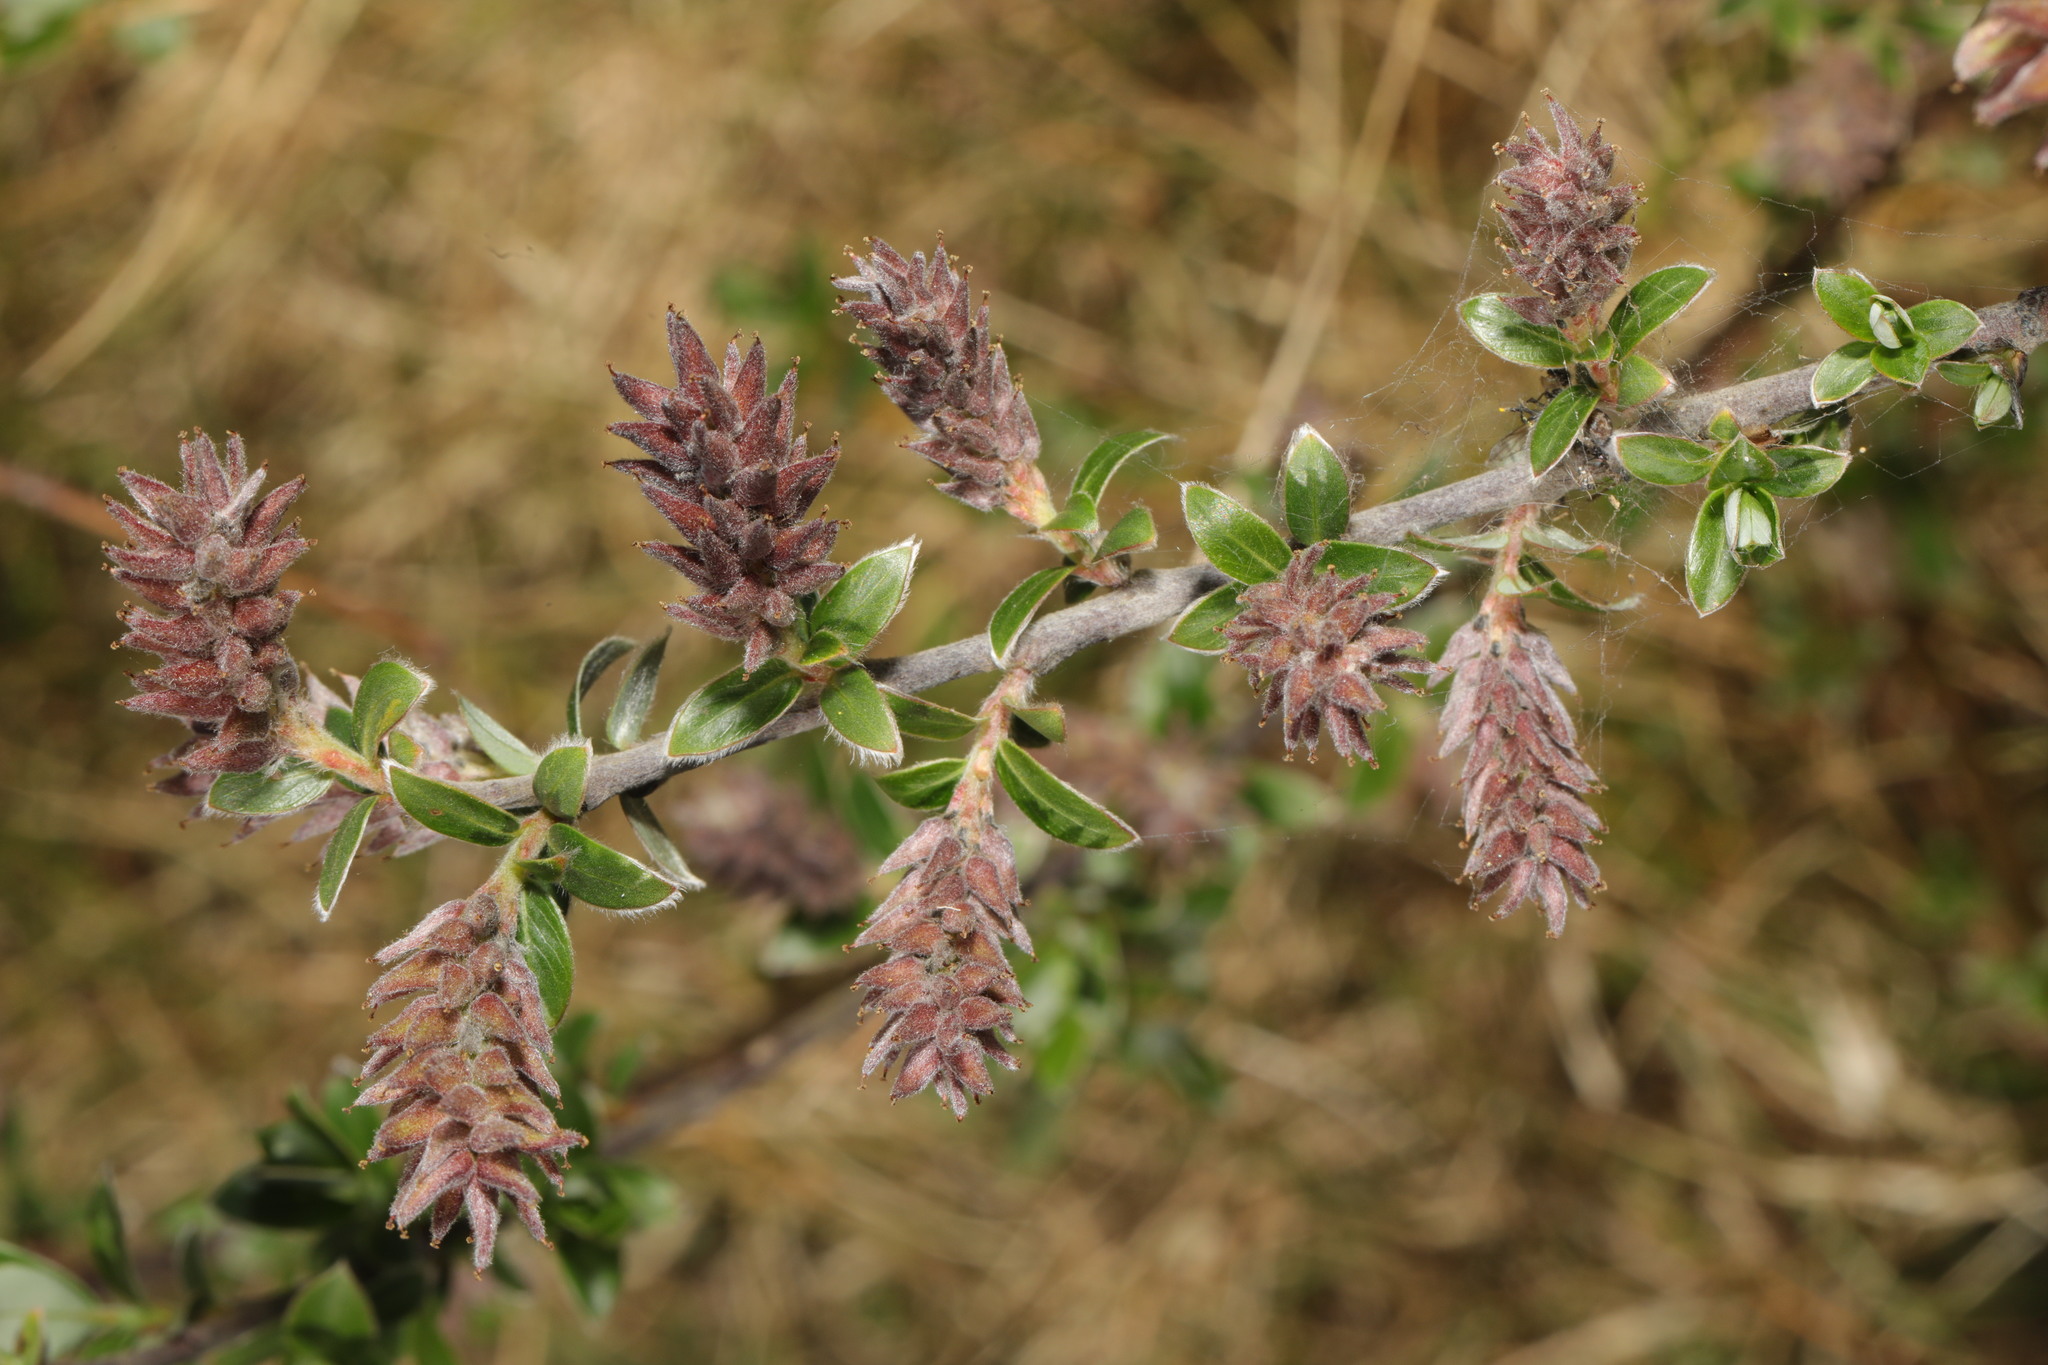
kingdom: Plantae
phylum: Tracheophyta
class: Magnoliopsida
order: Malpighiales
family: Salicaceae
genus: Salix
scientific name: Salix repens
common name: Creeping willow
